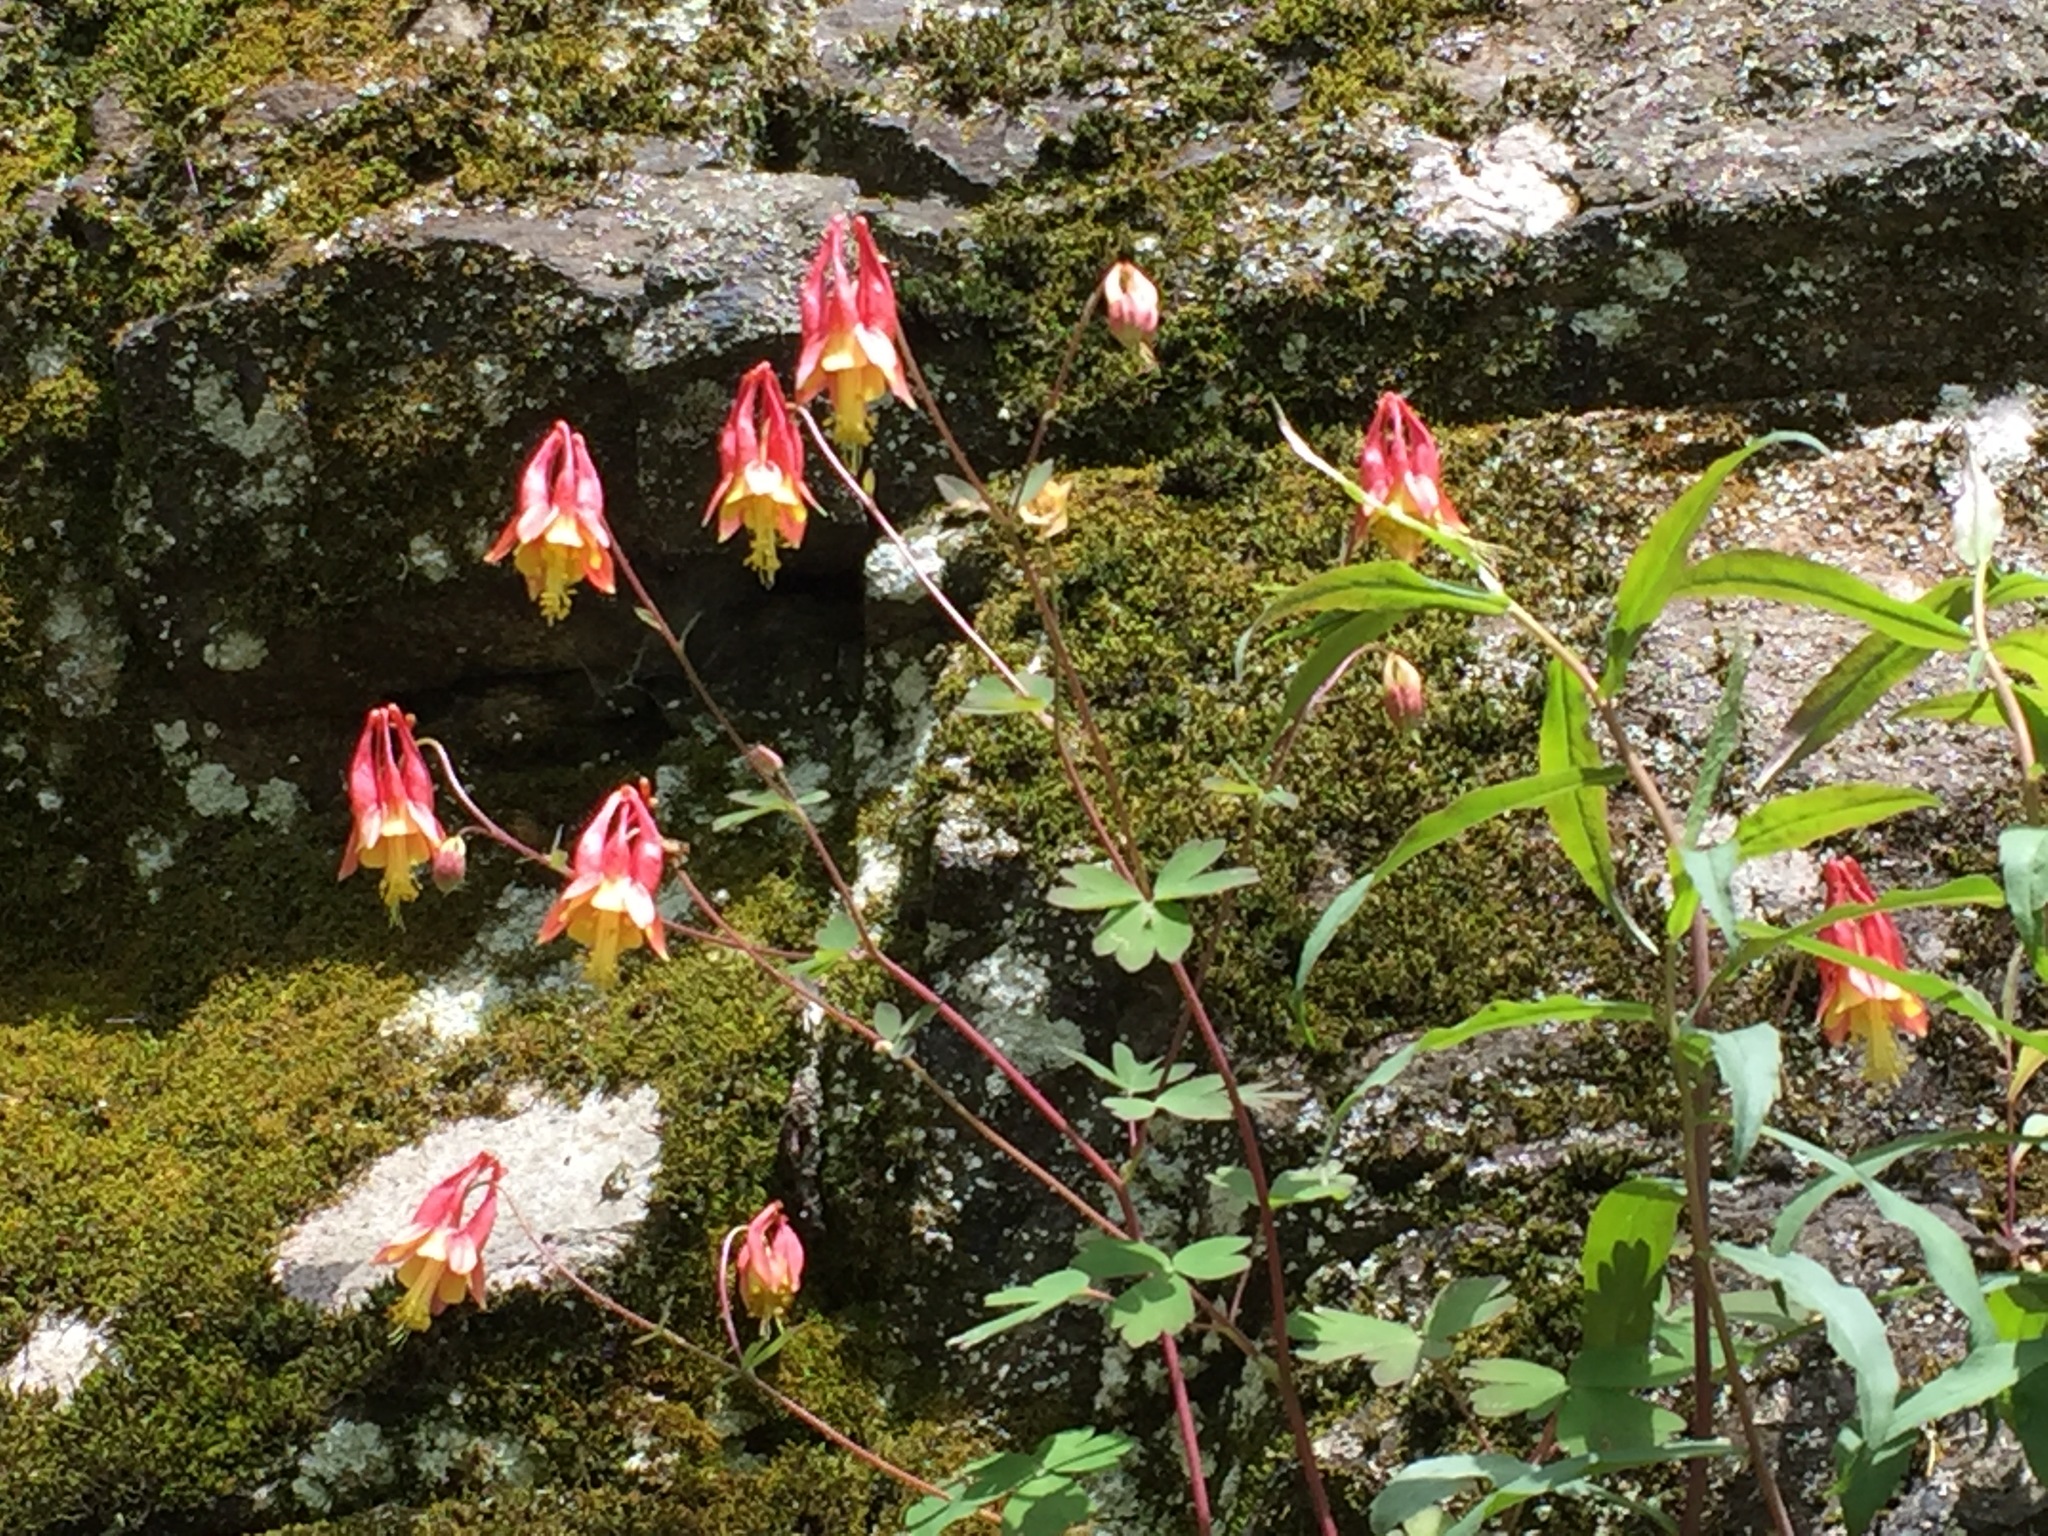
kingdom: Plantae
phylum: Tracheophyta
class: Magnoliopsida
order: Ranunculales
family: Ranunculaceae
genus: Aquilegia
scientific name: Aquilegia canadensis
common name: American columbine
